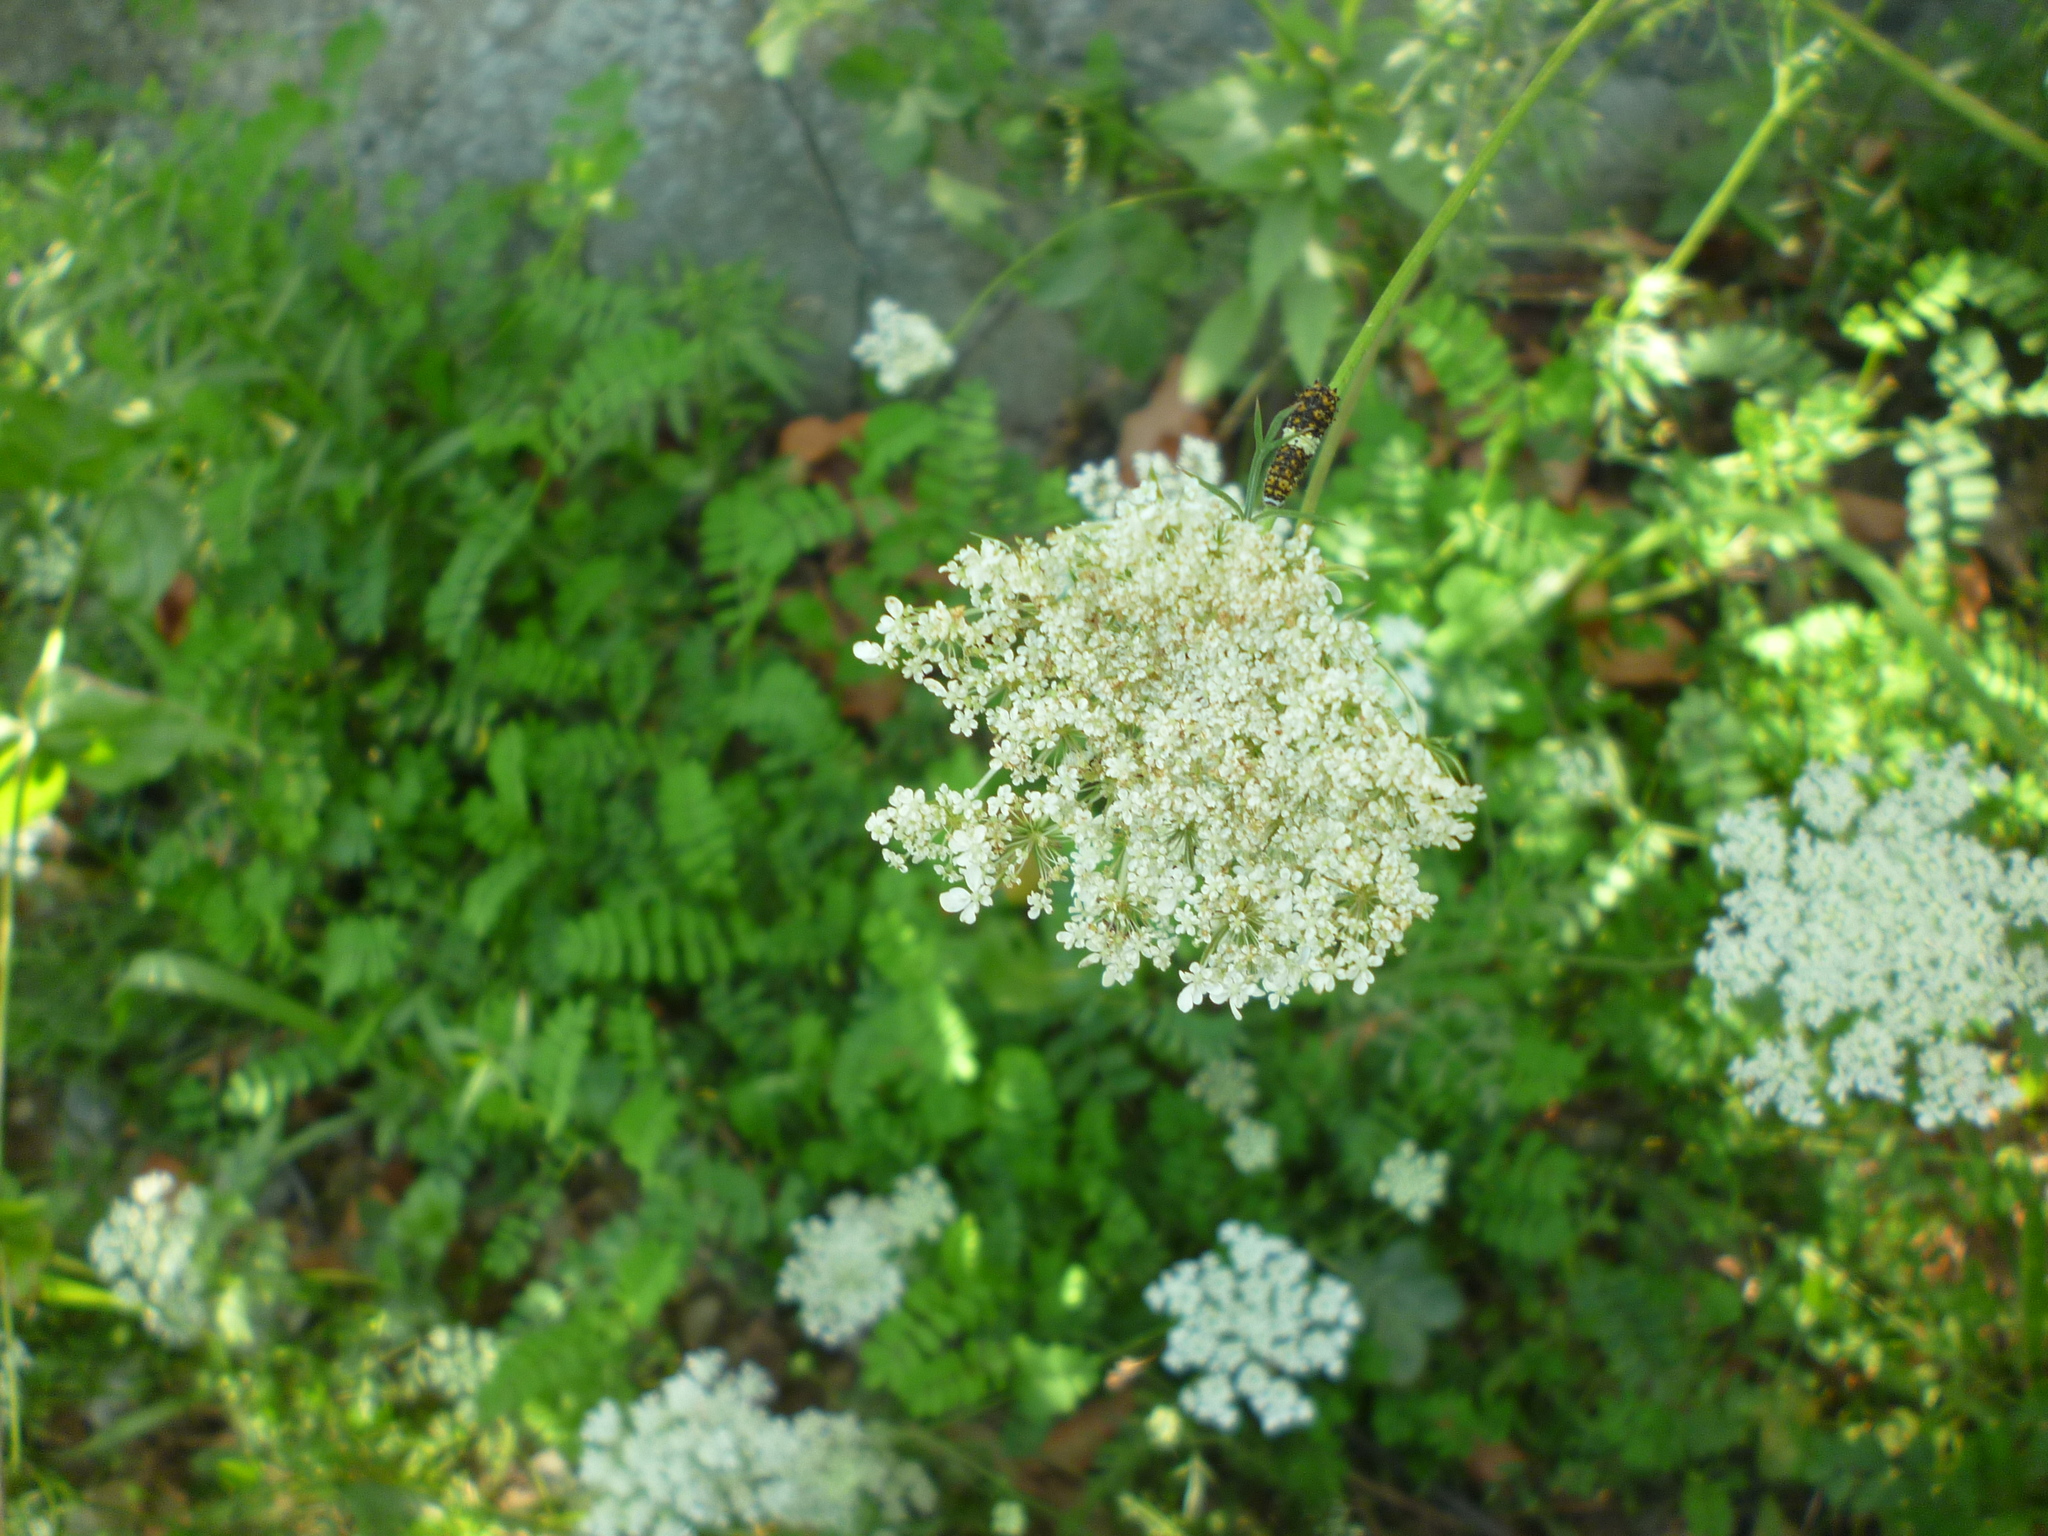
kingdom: Plantae
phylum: Tracheophyta
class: Magnoliopsida
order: Apiales
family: Apiaceae
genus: Daucus
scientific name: Daucus carota
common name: Wild carrot
